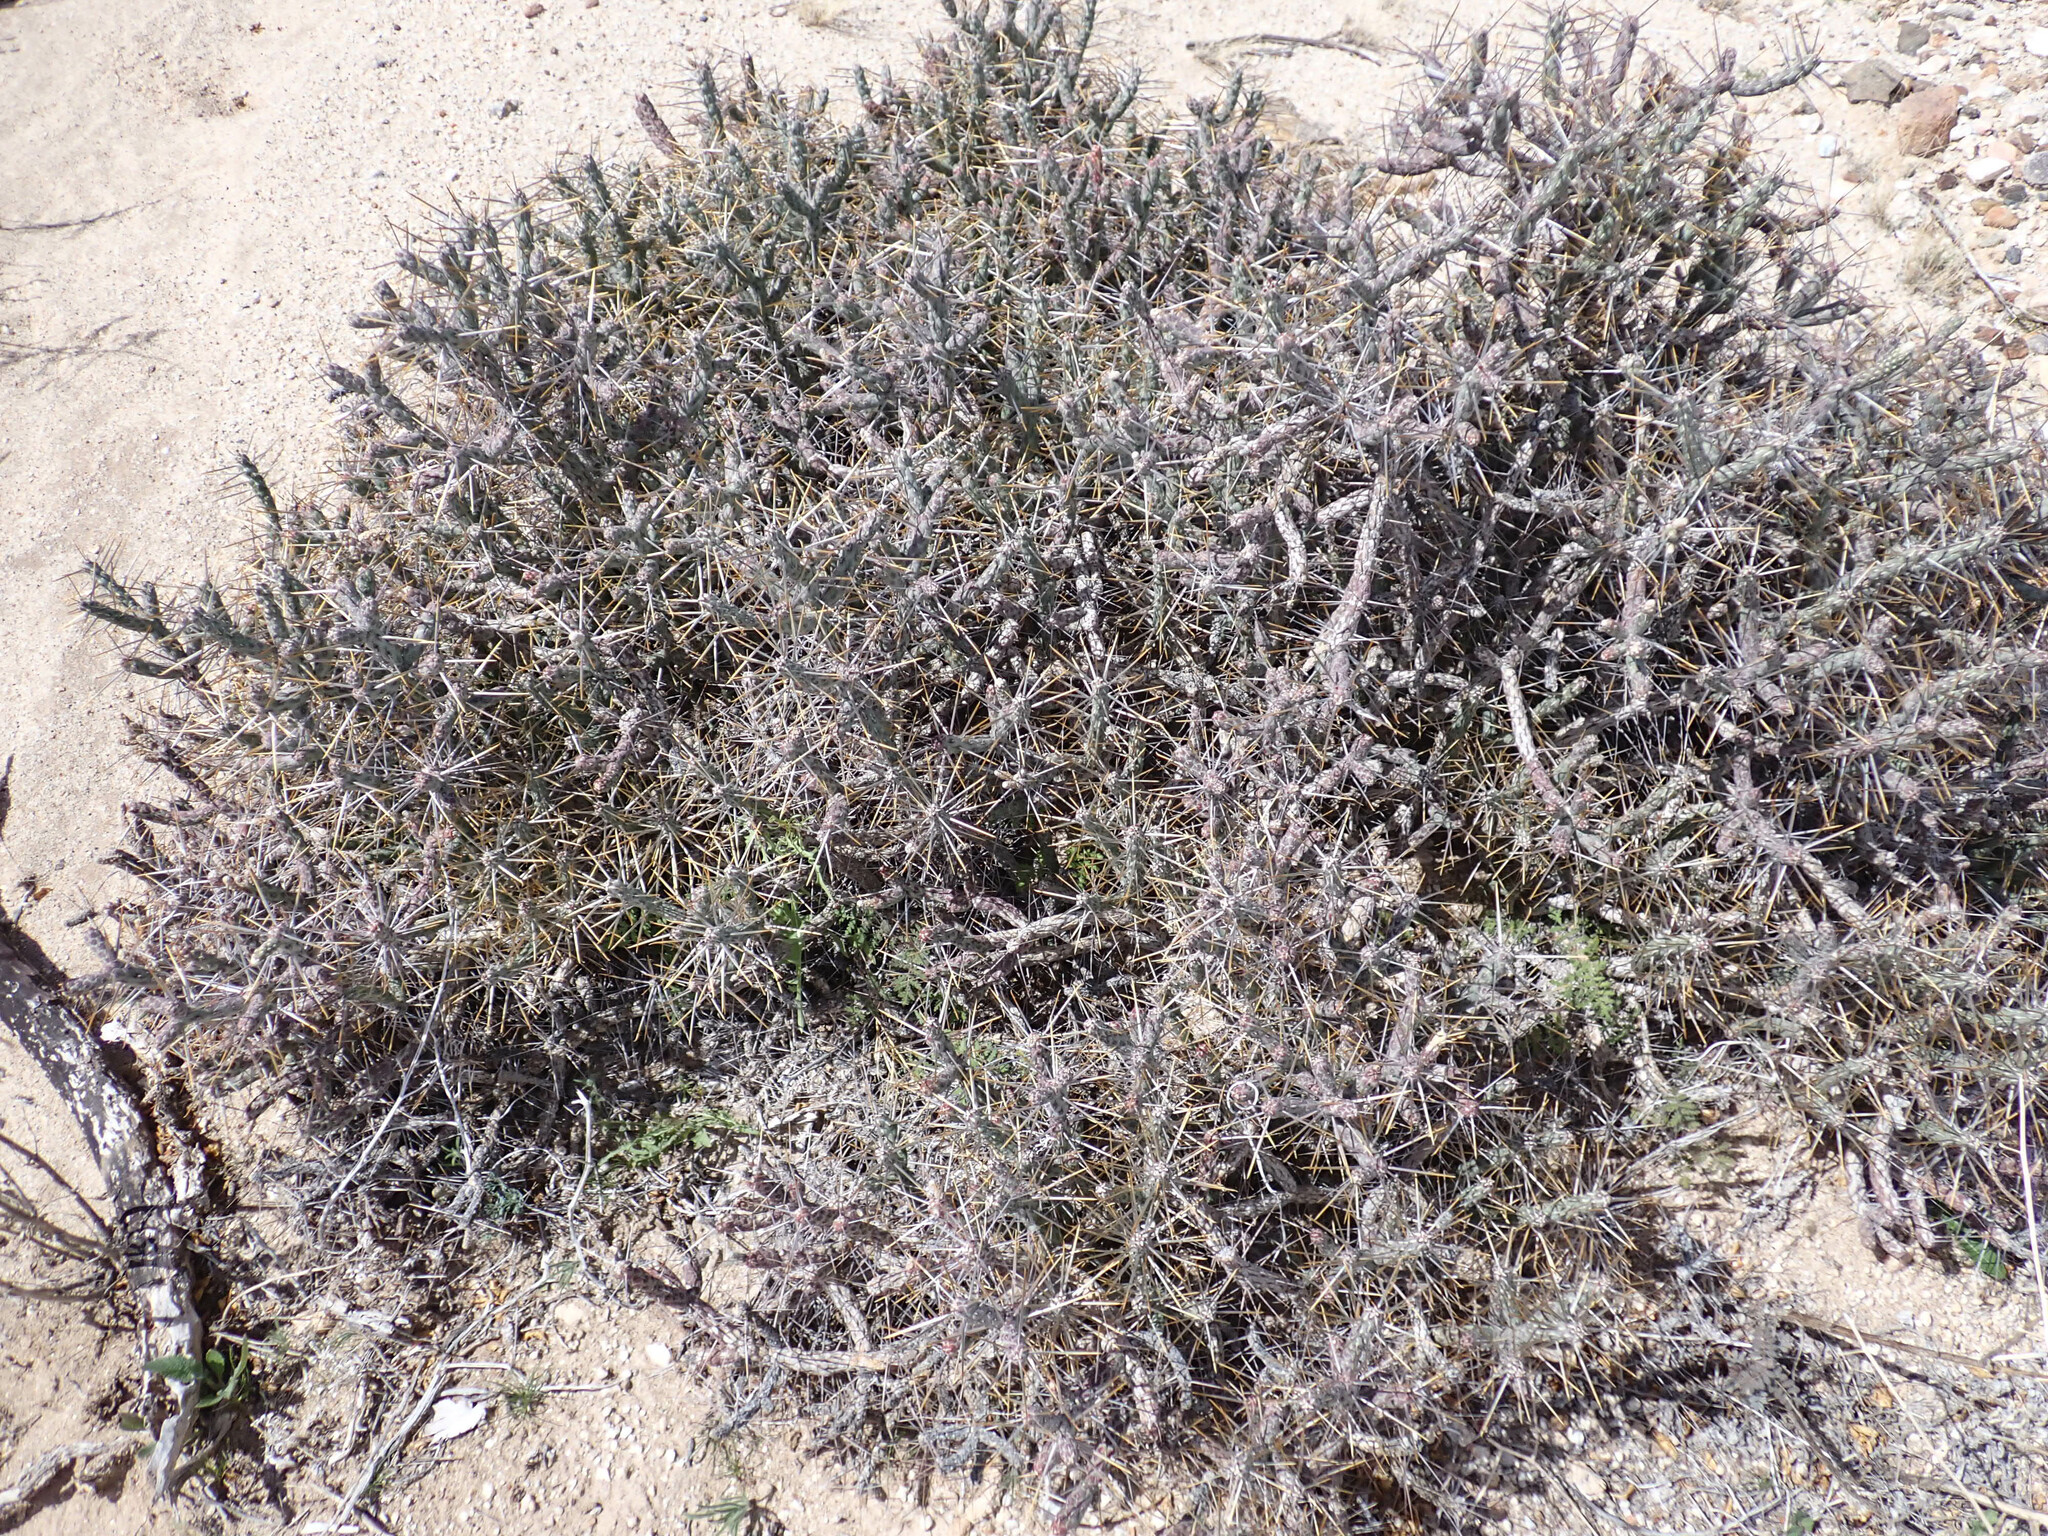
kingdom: Plantae
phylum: Tracheophyta
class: Magnoliopsida
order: Caryophyllales
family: Cactaceae
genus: Cylindropuntia
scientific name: Cylindropuntia ramosissima
